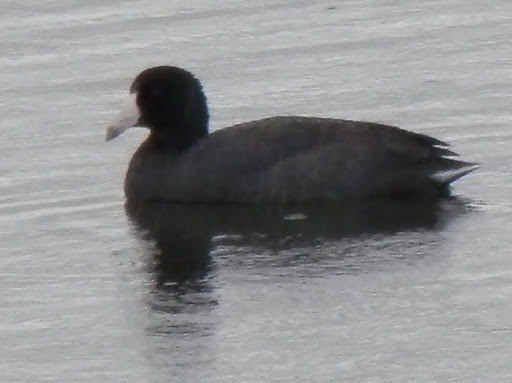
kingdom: Animalia
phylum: Chordata
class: Aves
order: Gruiformes
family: Rallidae
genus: Fulica
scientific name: Fulica americana
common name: American coot
